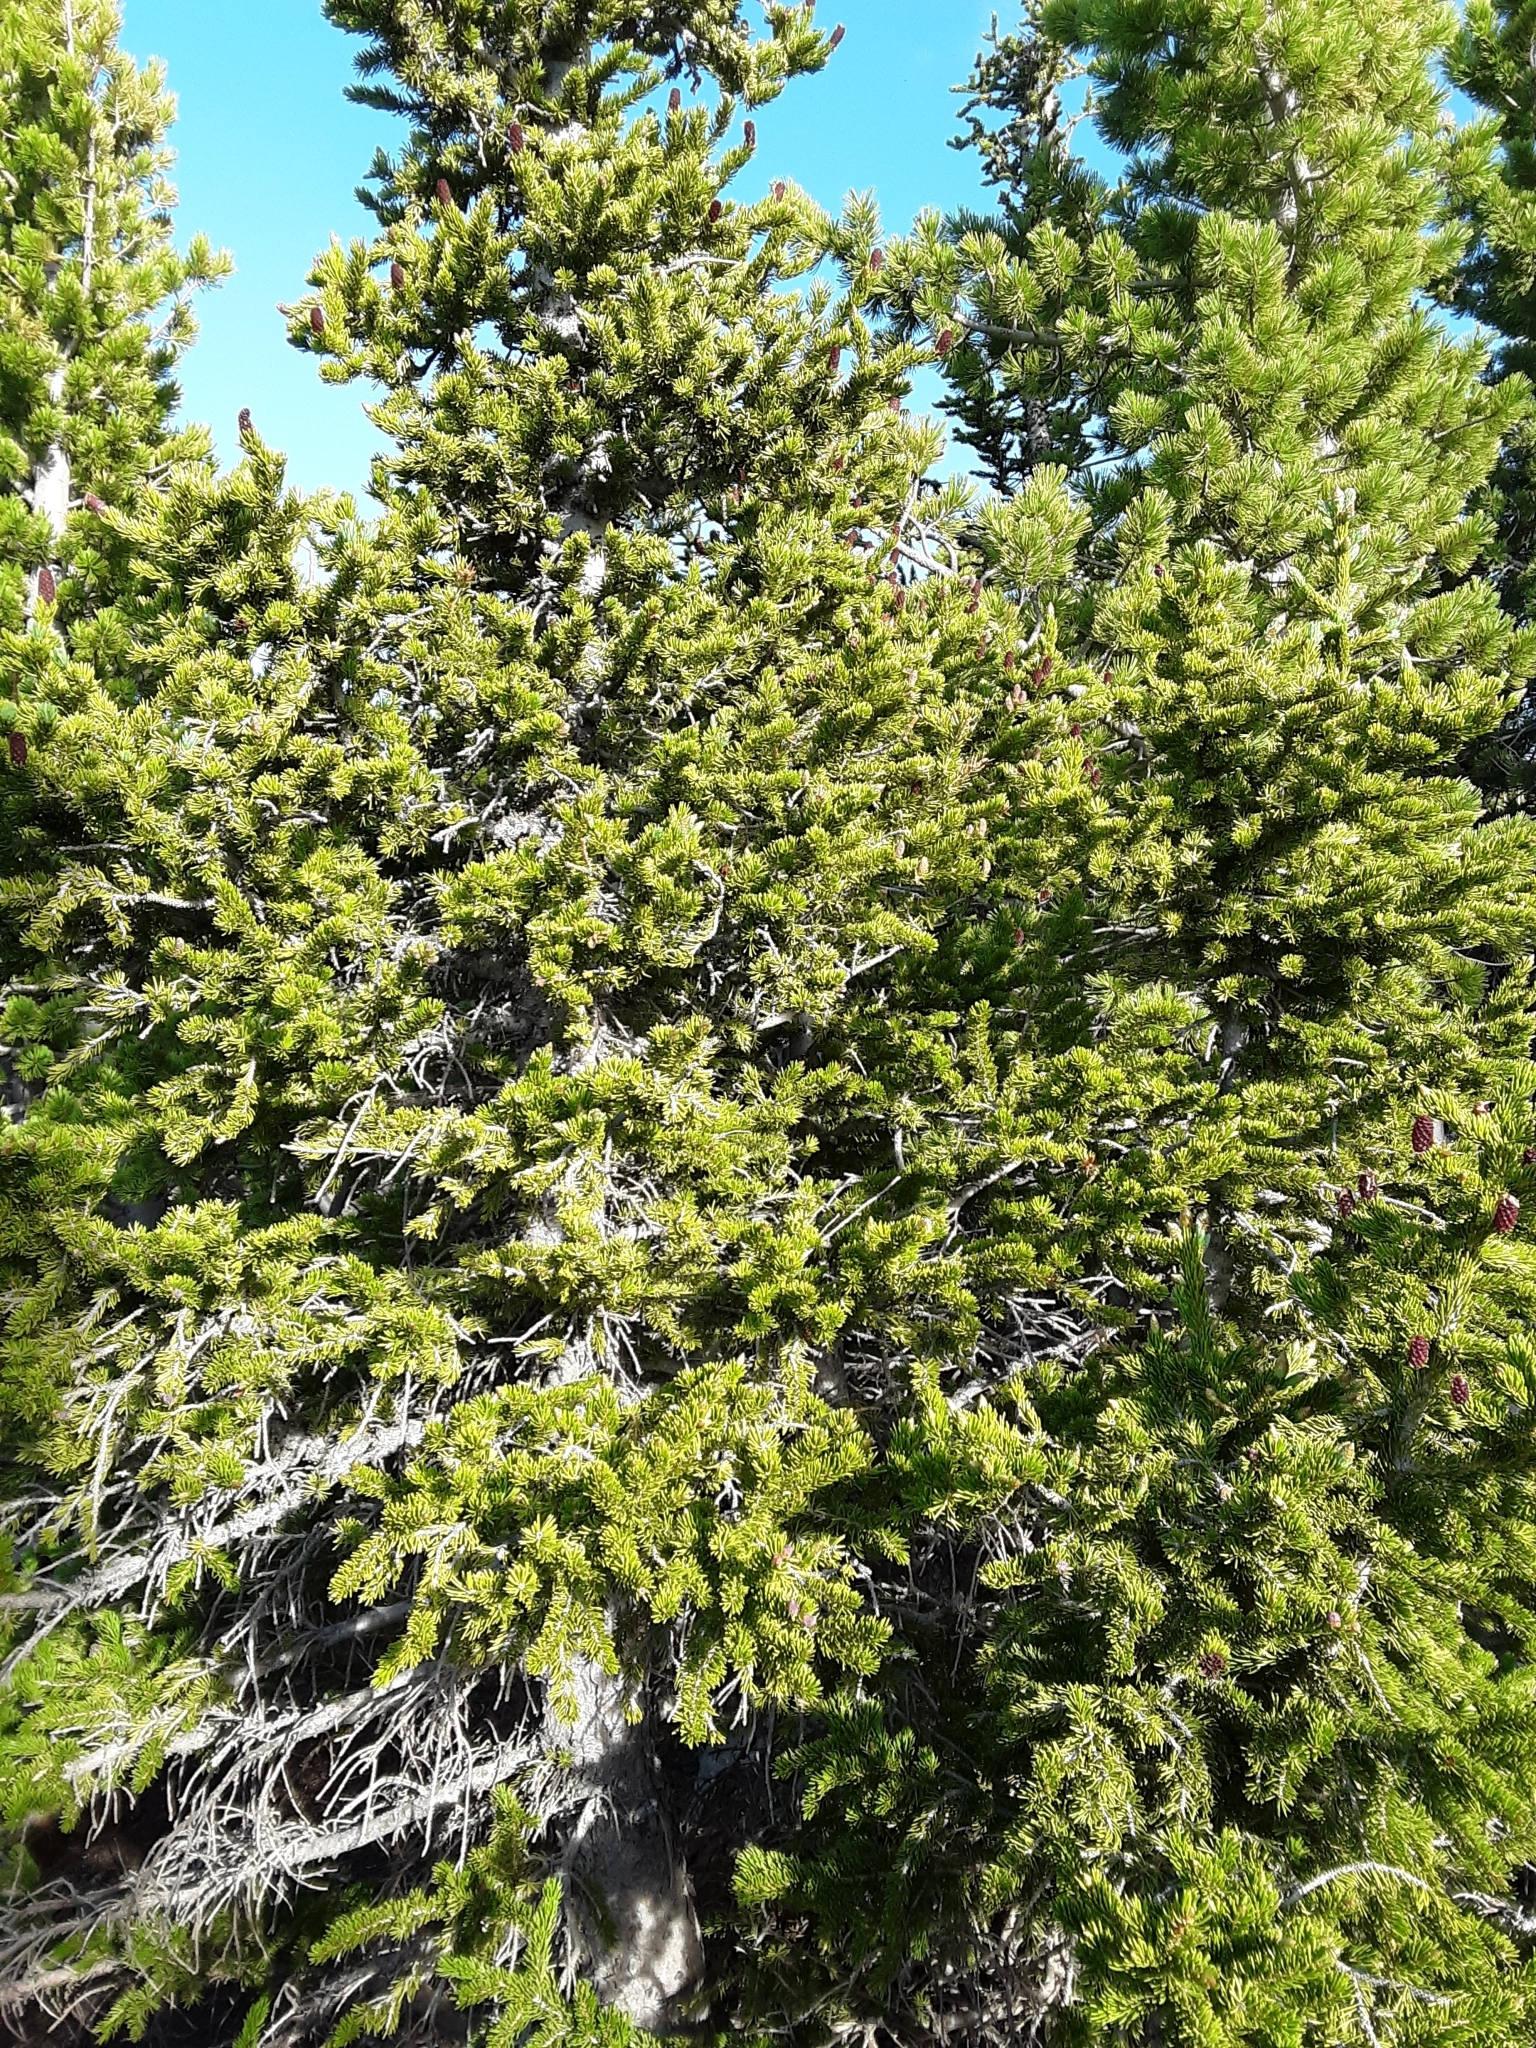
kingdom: Plantae
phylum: Tracheophyta
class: Pinopsida
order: Pinales
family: Pinaceae
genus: Abies
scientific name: Abies lasiocarpa
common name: Subalpine fir
